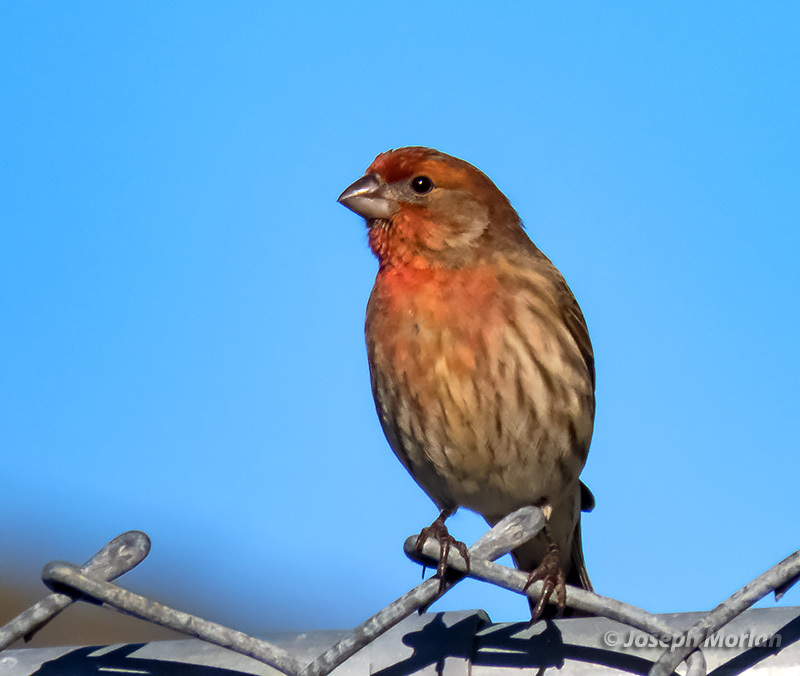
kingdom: Animalia
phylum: Chordata
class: Aves
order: Passeriformes
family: Fringillidae
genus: Haemorhous
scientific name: Haemorhous mexicanus
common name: House finch
